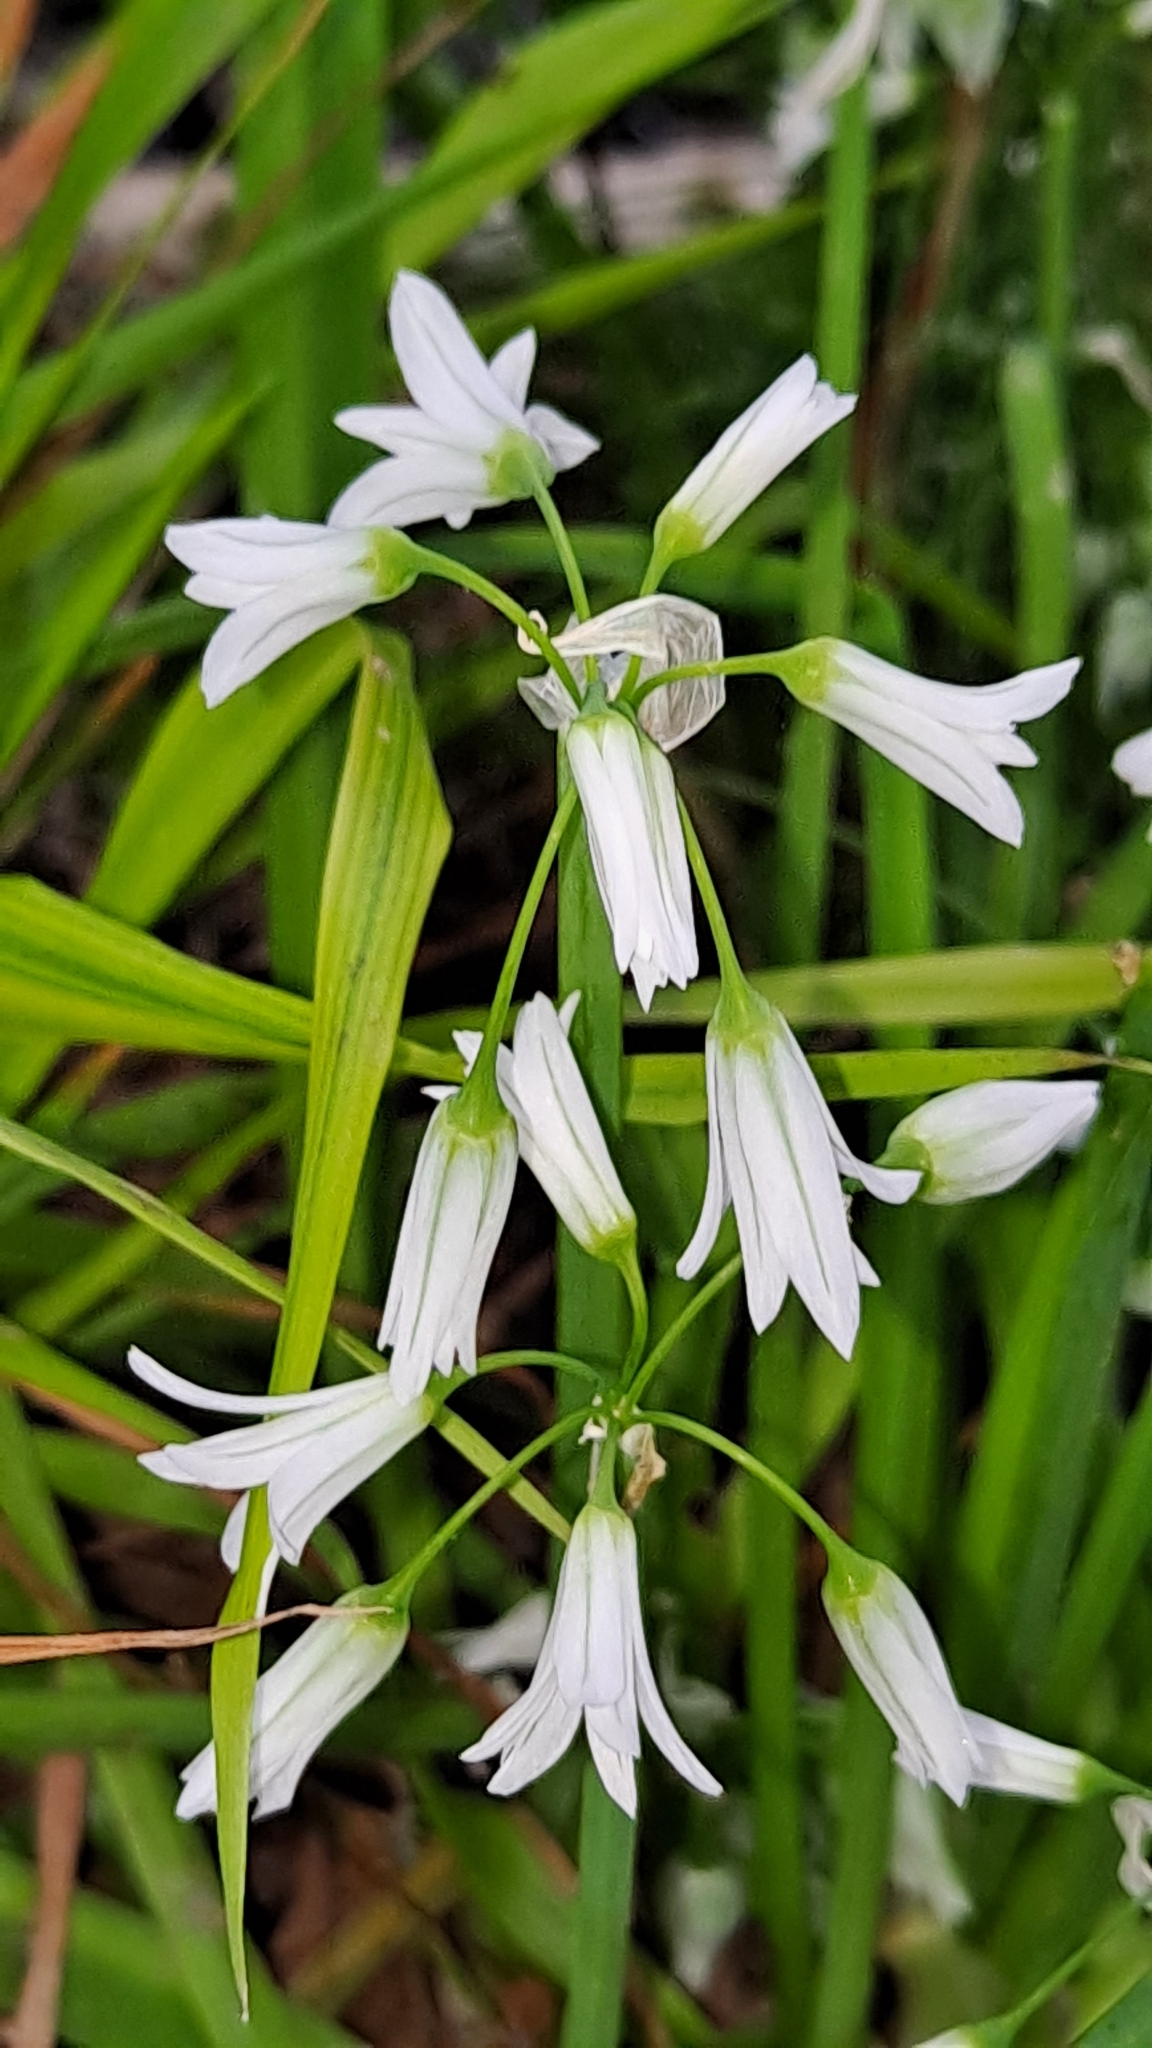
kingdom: Plantae
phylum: Tracheophyta
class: Liliopsida
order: Asparagales
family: Amaryllidaceae
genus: Allium
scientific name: Allium triquetrum
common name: Three-cornered garlic
